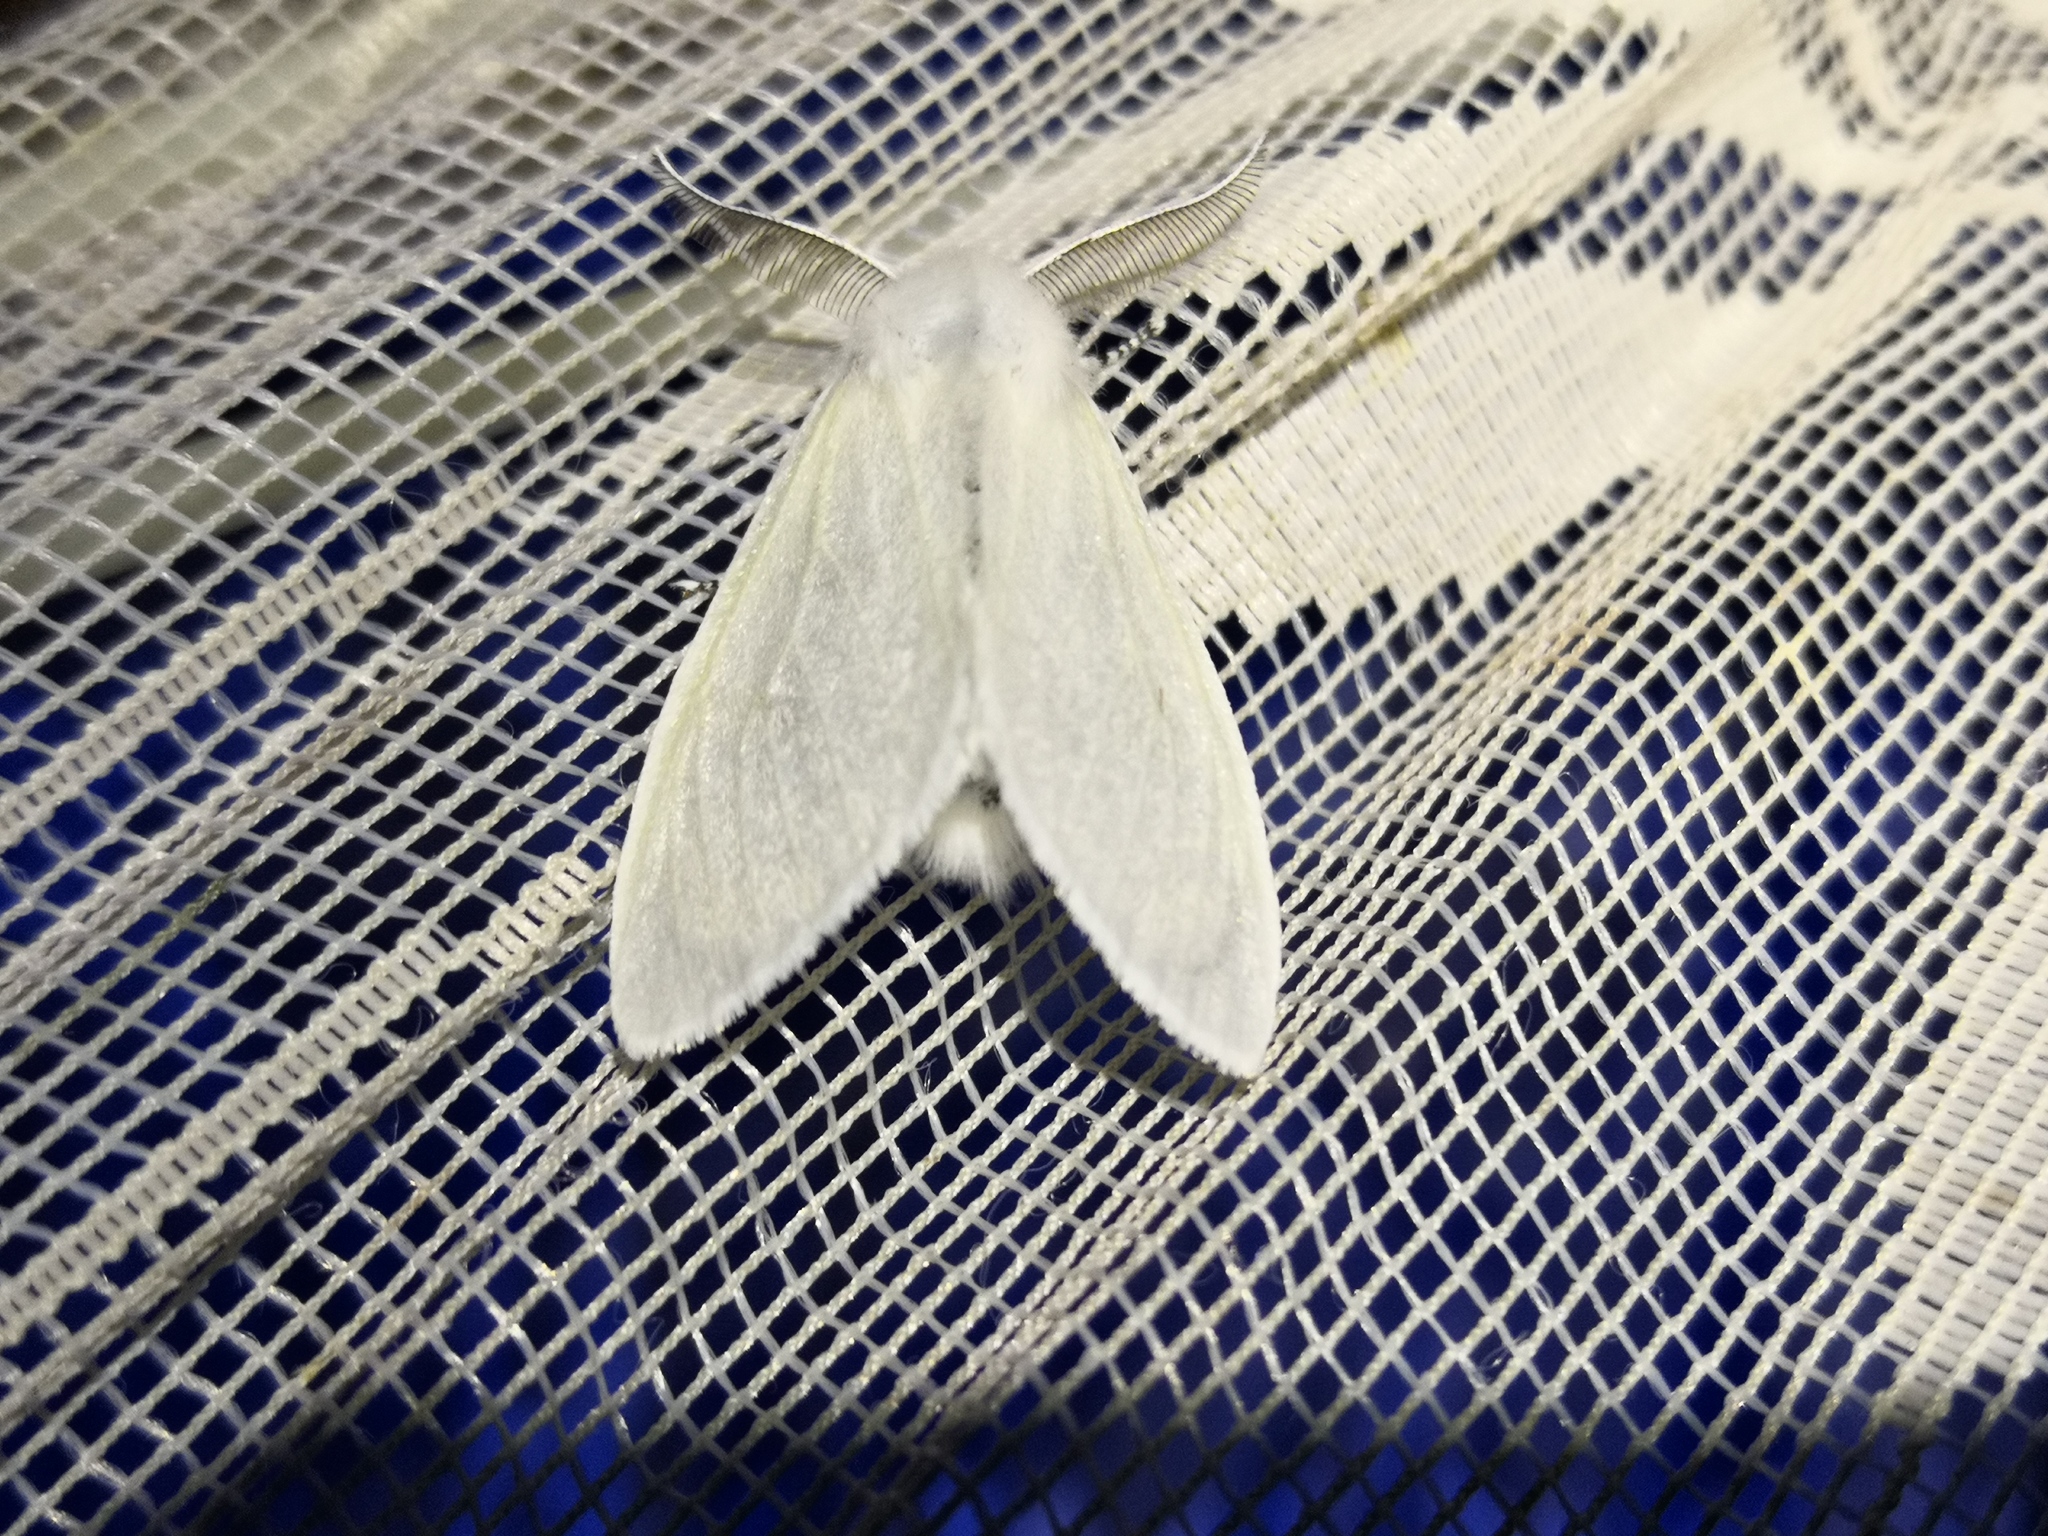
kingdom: Animalia
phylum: Arthropoda
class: Insecta
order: Lepidoptera
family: Erebidae
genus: Leucoma
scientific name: Leucoma salicis
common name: White satin moth
